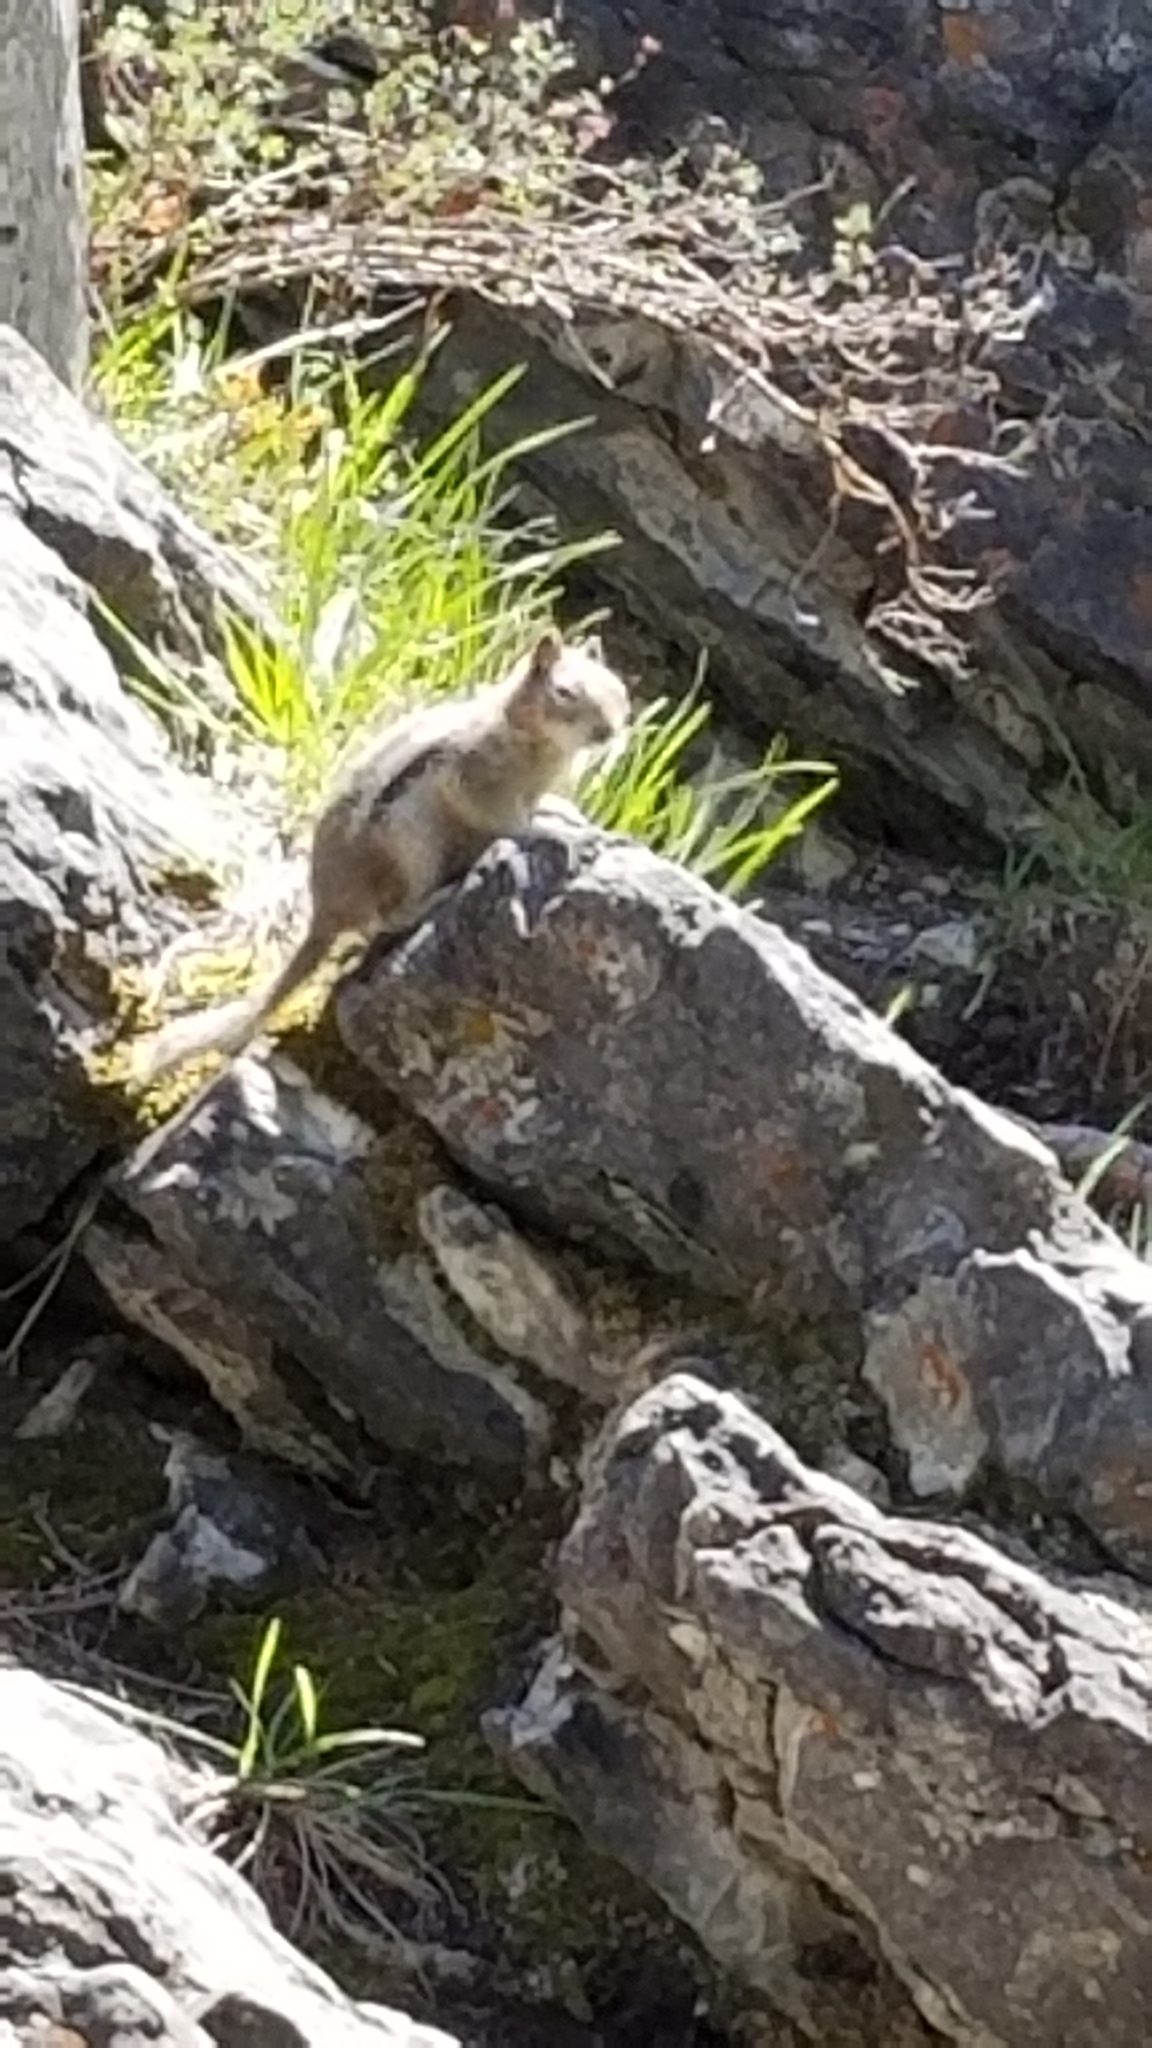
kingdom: Animalia
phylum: Chordata
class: Mammalia
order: Rodentia
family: Sciuridae
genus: Callospermophilus
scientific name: Callospermophilus lateralis
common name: Golden-mantled ground squirrel
